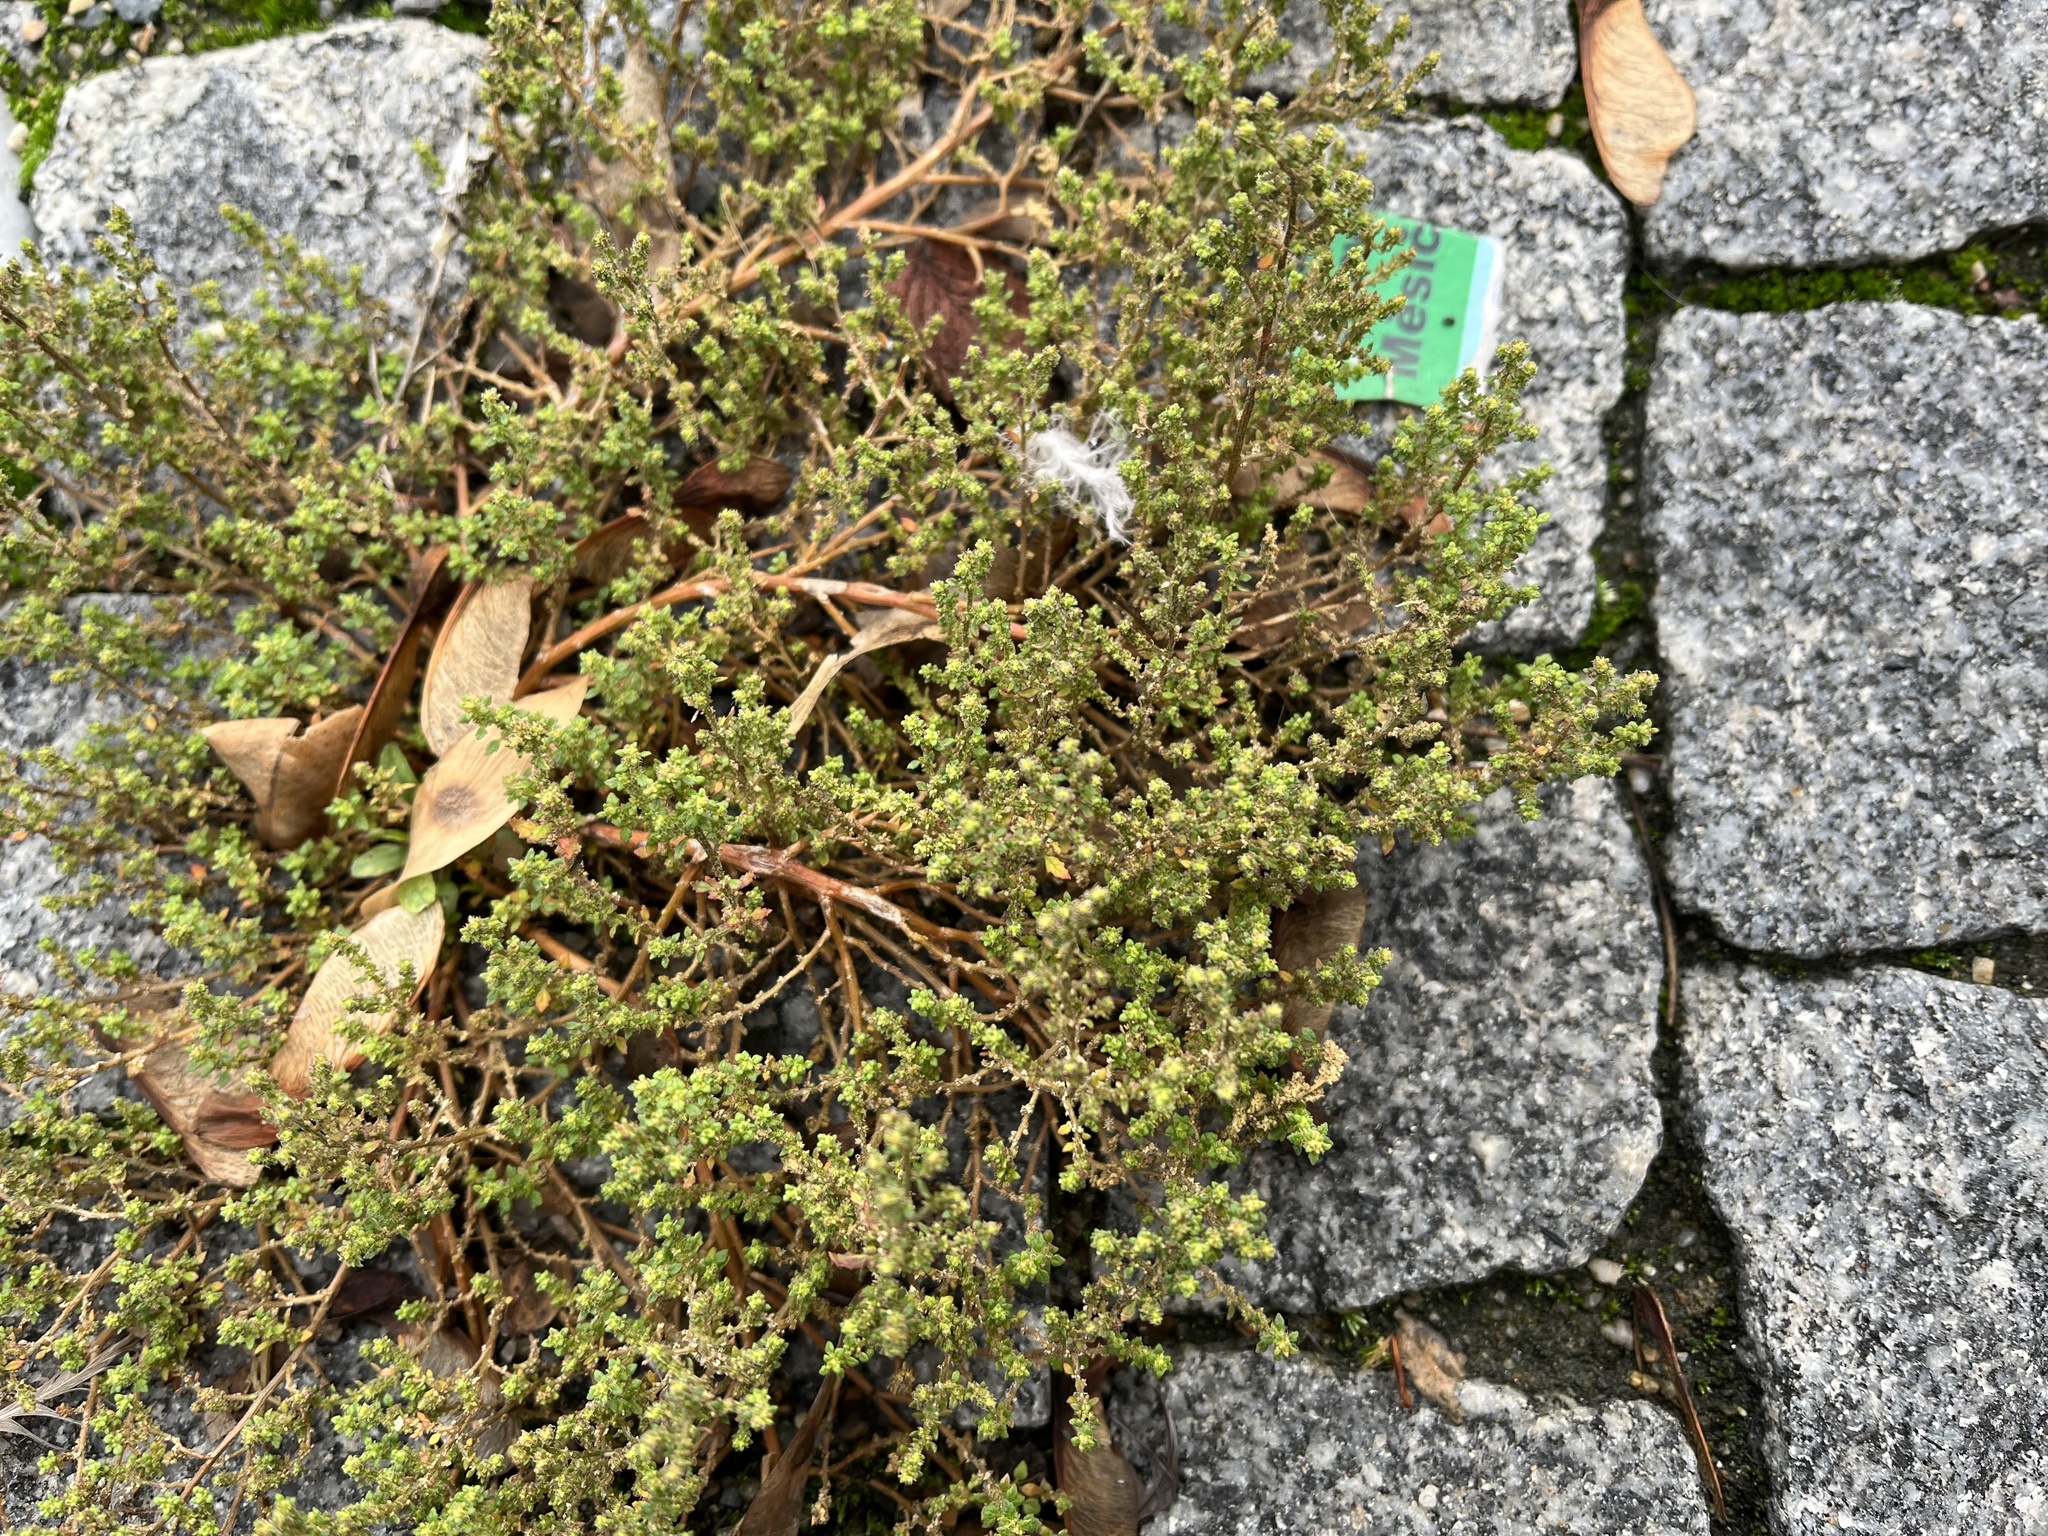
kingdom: Plantae
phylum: Tracheophyta
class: Magnoliopsida
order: Caryophyllales
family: Amaranthaceae
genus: Dysphania
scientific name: Dysphania pumilio
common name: Clammy goosefoot
